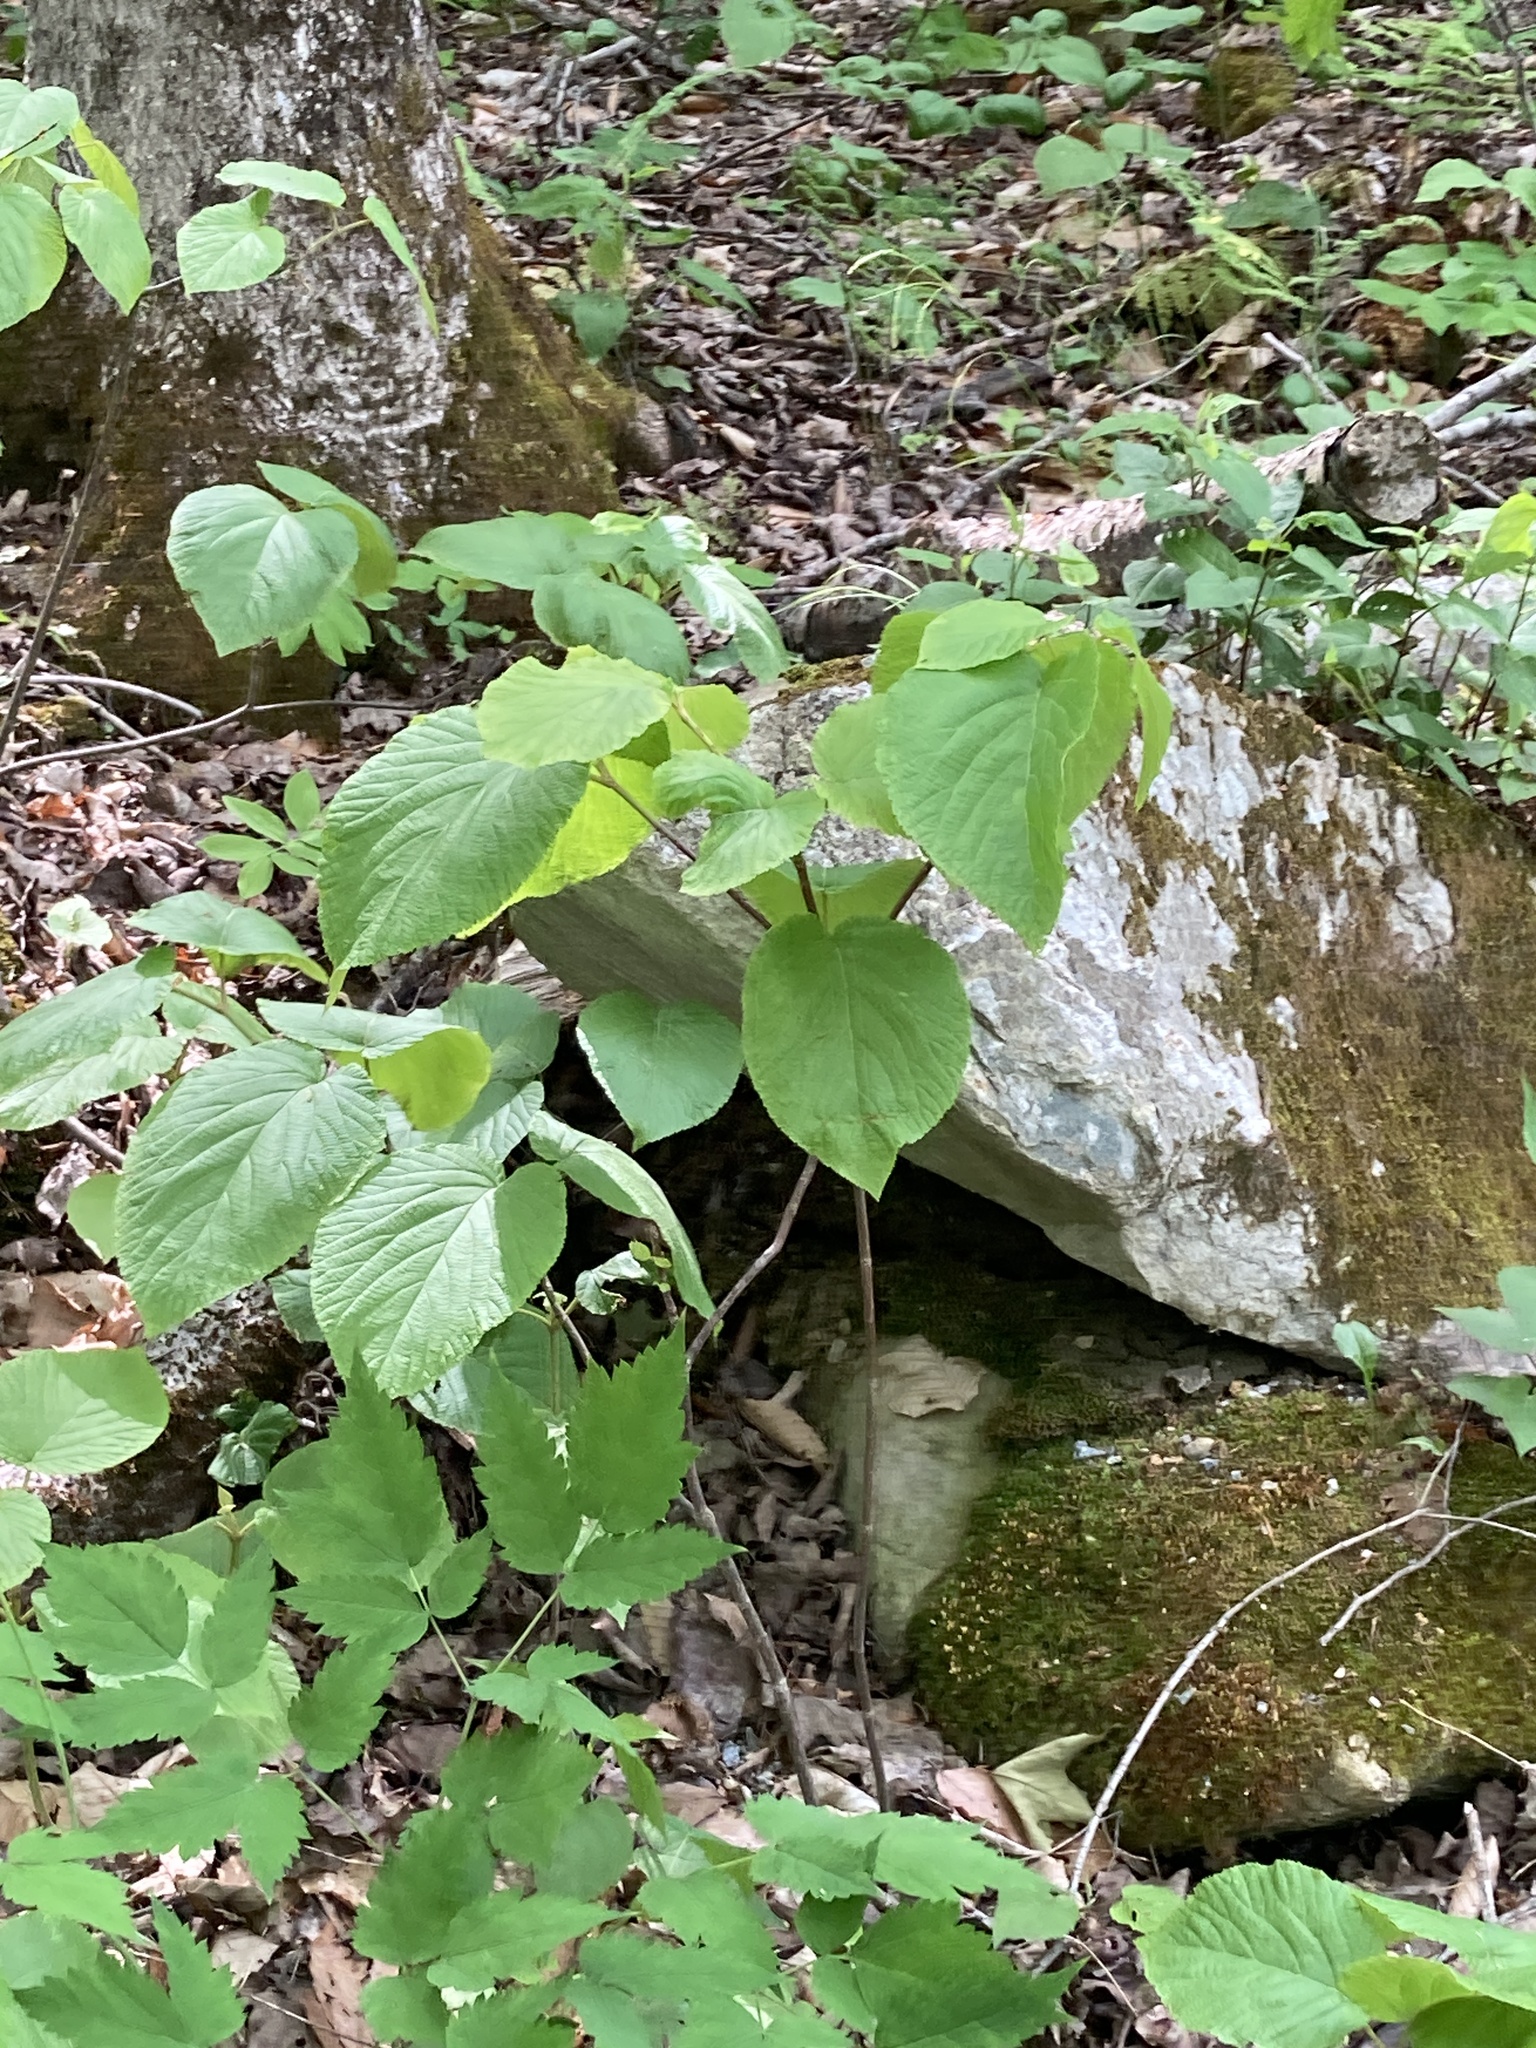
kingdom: Plantae
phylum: Tracheophyta
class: Magnoliopsida
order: Dipsacales
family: Viburnaceae
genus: Viburnum
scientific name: Viburnum lantanoides
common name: Hobblebush
